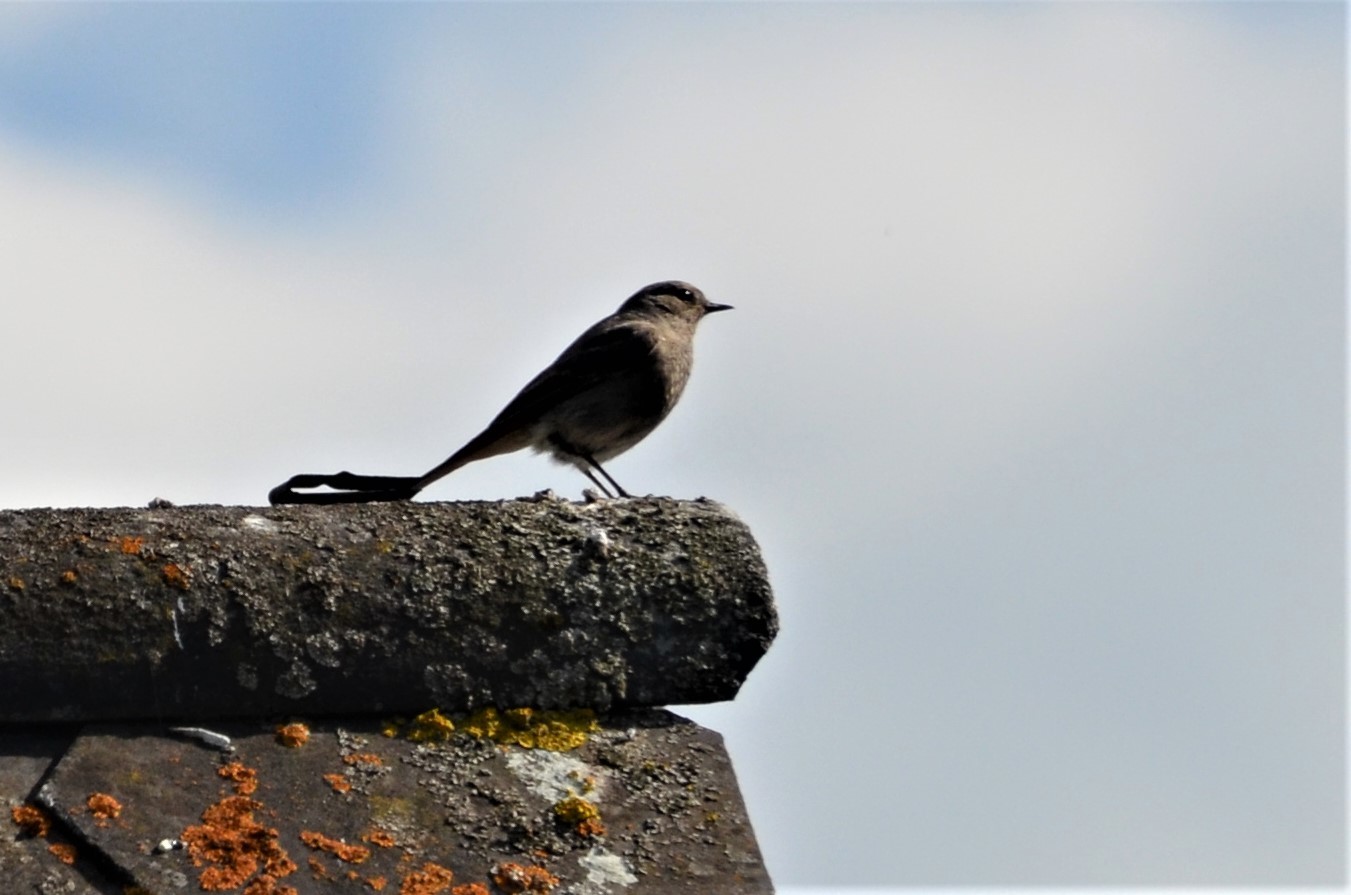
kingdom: Animalia
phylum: Chordata
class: Aves
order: Passeriformes
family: Muscicapidae
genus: Phoenicurus
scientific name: Phoenicurus ochruros
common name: Black redstart
